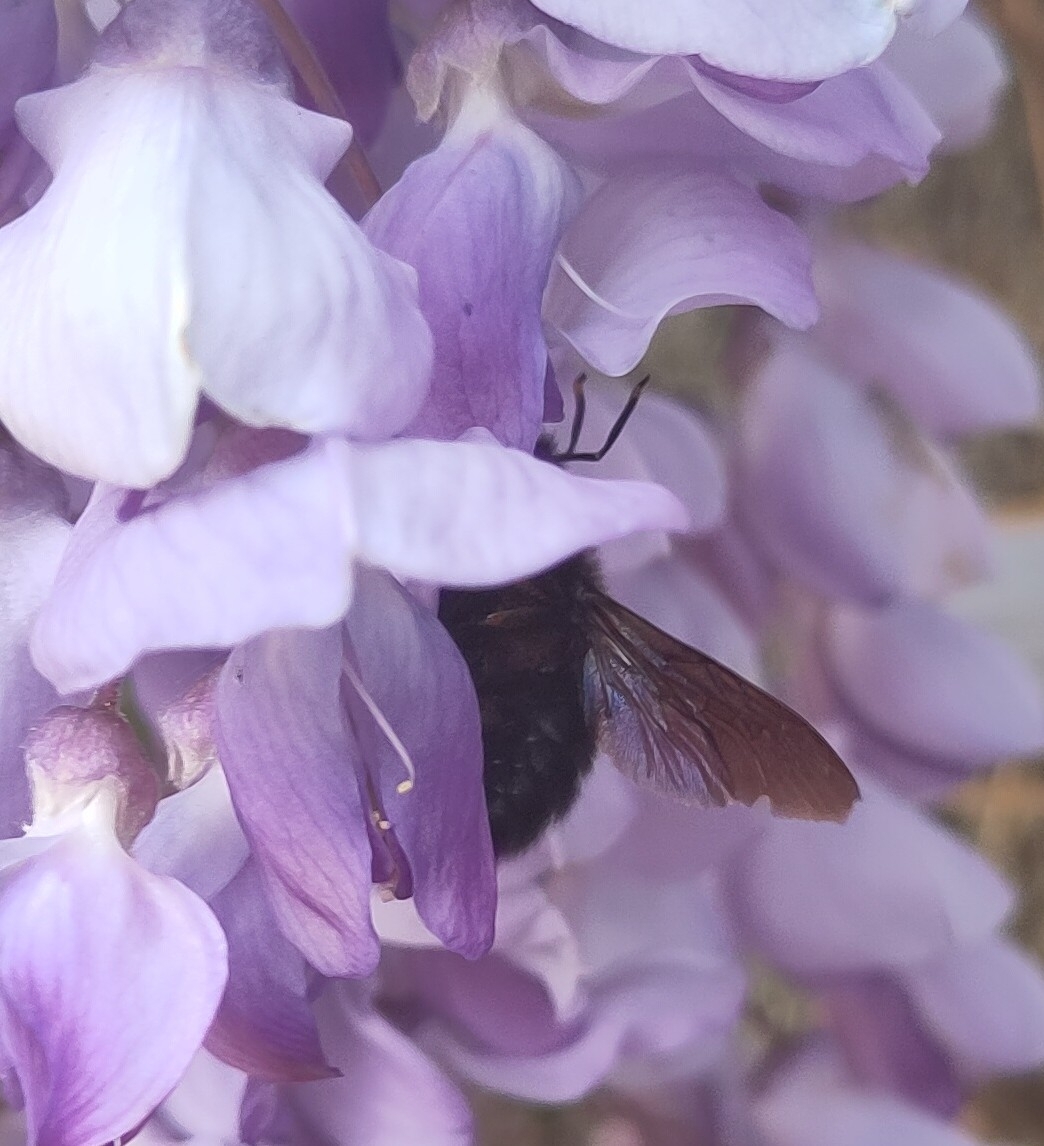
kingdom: Animalia
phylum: Arthropoda
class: Insecta
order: Hymenoptera
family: Apidae
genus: Xylocopa
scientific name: Xylocopa violacea
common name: Violet carpenter bee
